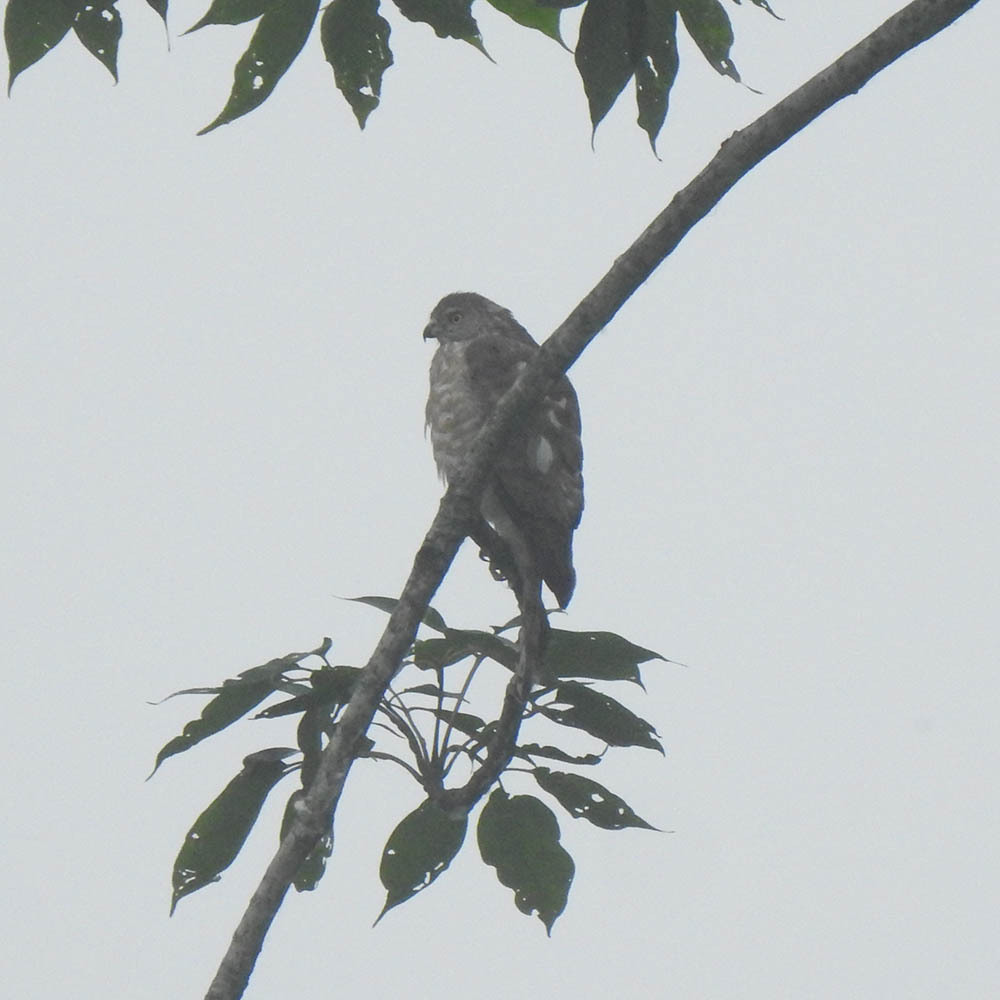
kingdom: Animalia
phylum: Chordata
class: Aves
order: Accipitriformes
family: Accipitridae
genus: Accipiter
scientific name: Accipiter badius
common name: Shikra
